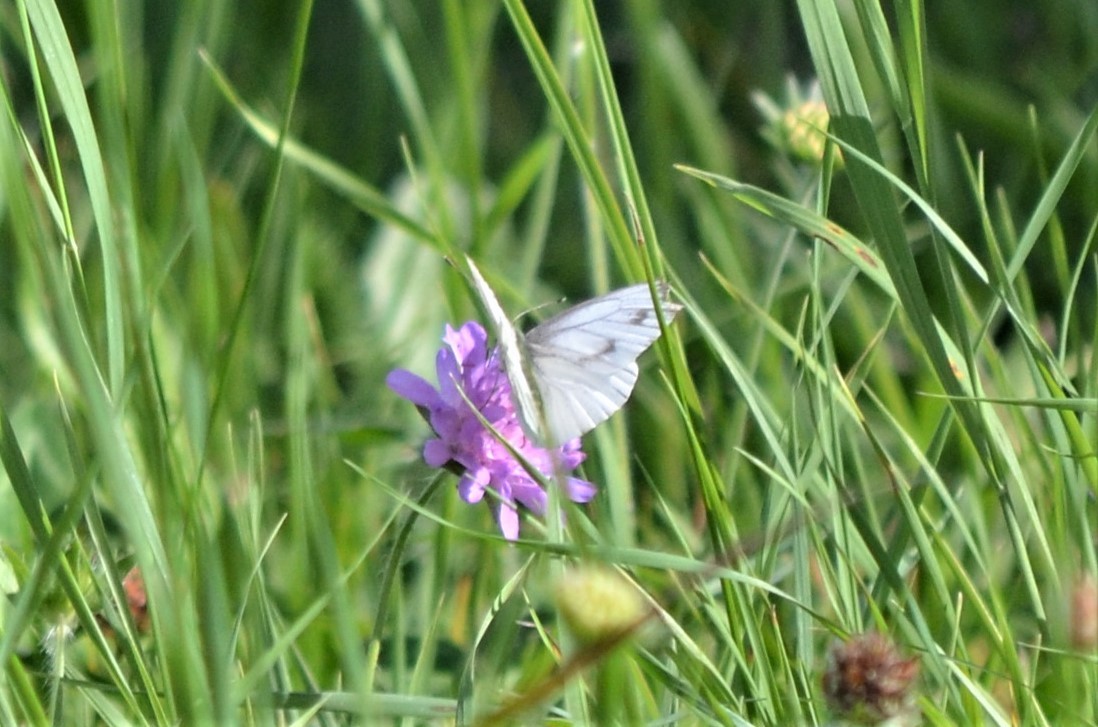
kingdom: Animalia
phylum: Arthropoda
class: Insecta
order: Lepidoptera
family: Pieridae
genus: Pieris
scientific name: Pieris napi
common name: Green-veined white
